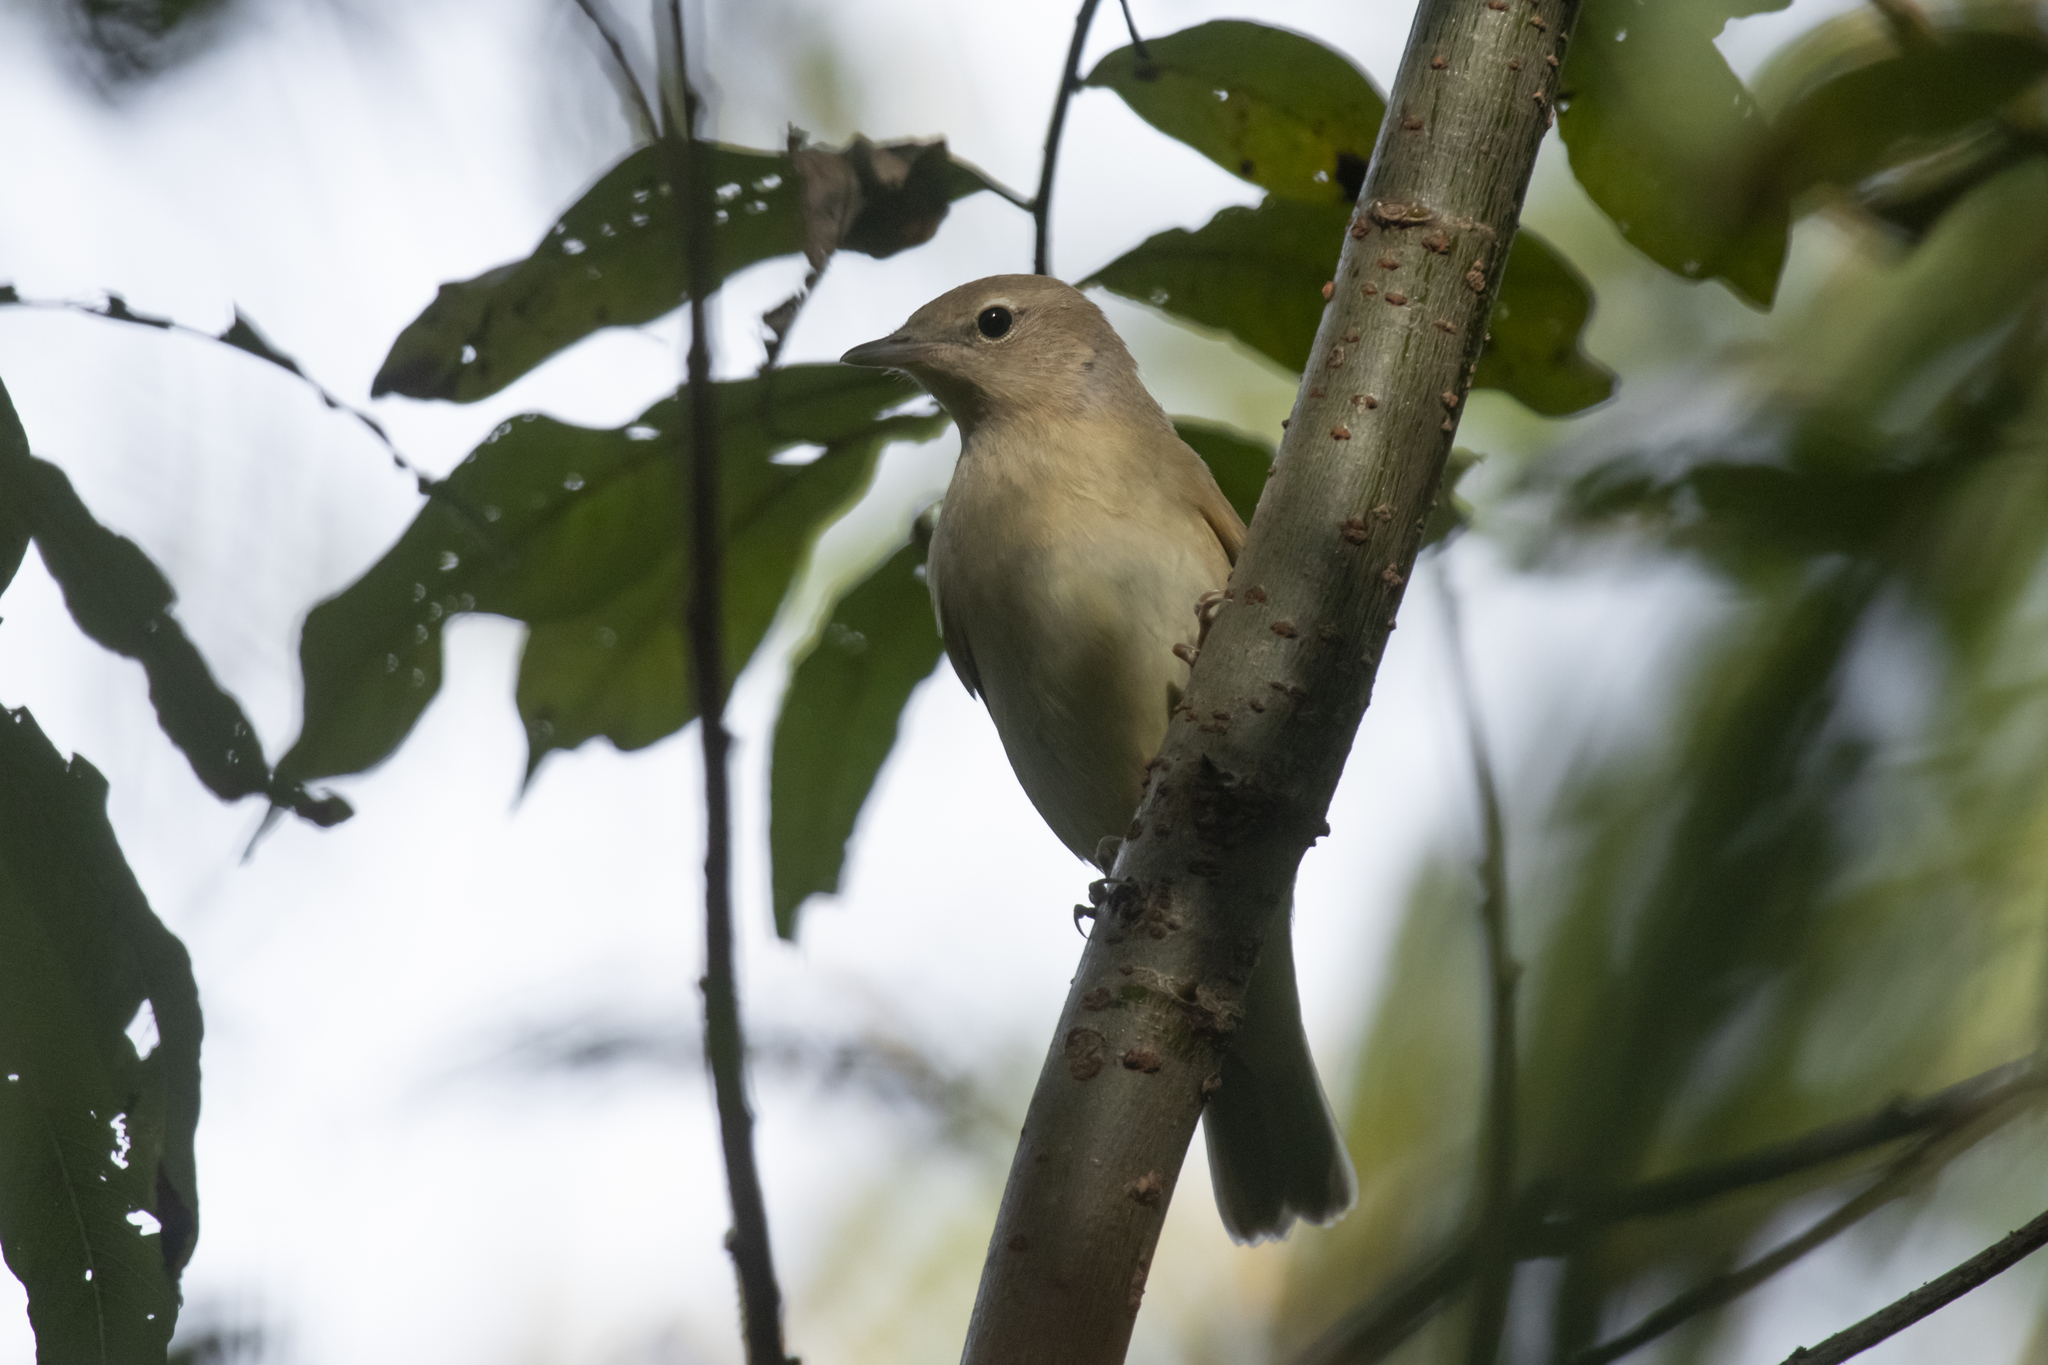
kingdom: Animalia
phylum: Chordata
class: Aves
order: Passeriformes
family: Sylviidae
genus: Sylvia
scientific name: Sylvia borin
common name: Garden warbler
